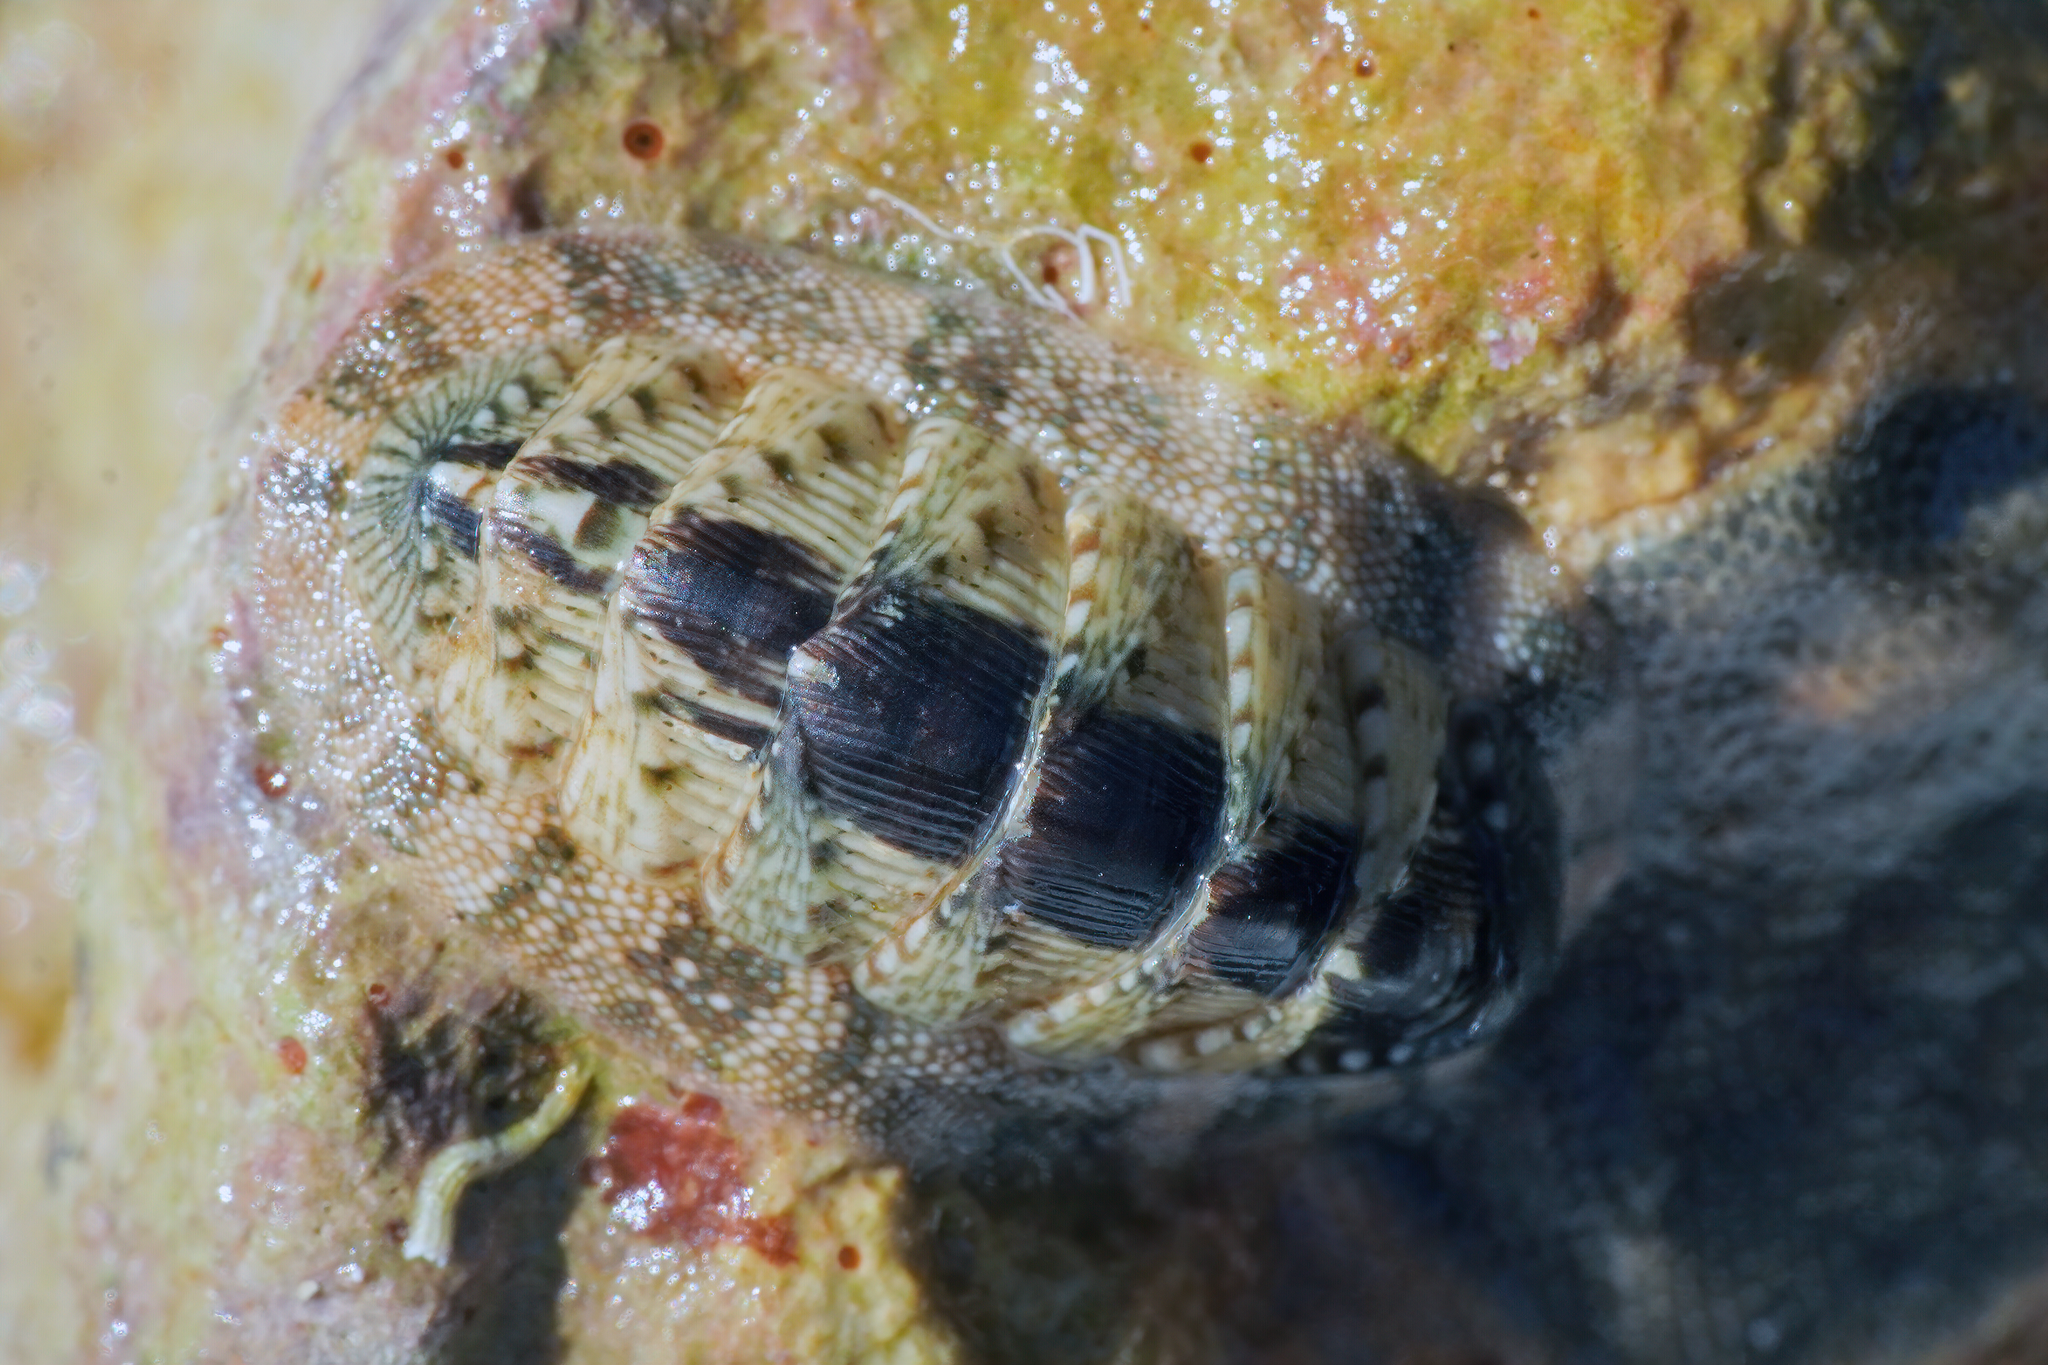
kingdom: Animalia
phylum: Mollusca
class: Polyplacophora
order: Chitonida
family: Chitonidae
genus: Rhyssoplax
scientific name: Rhyssoplax olivacea
